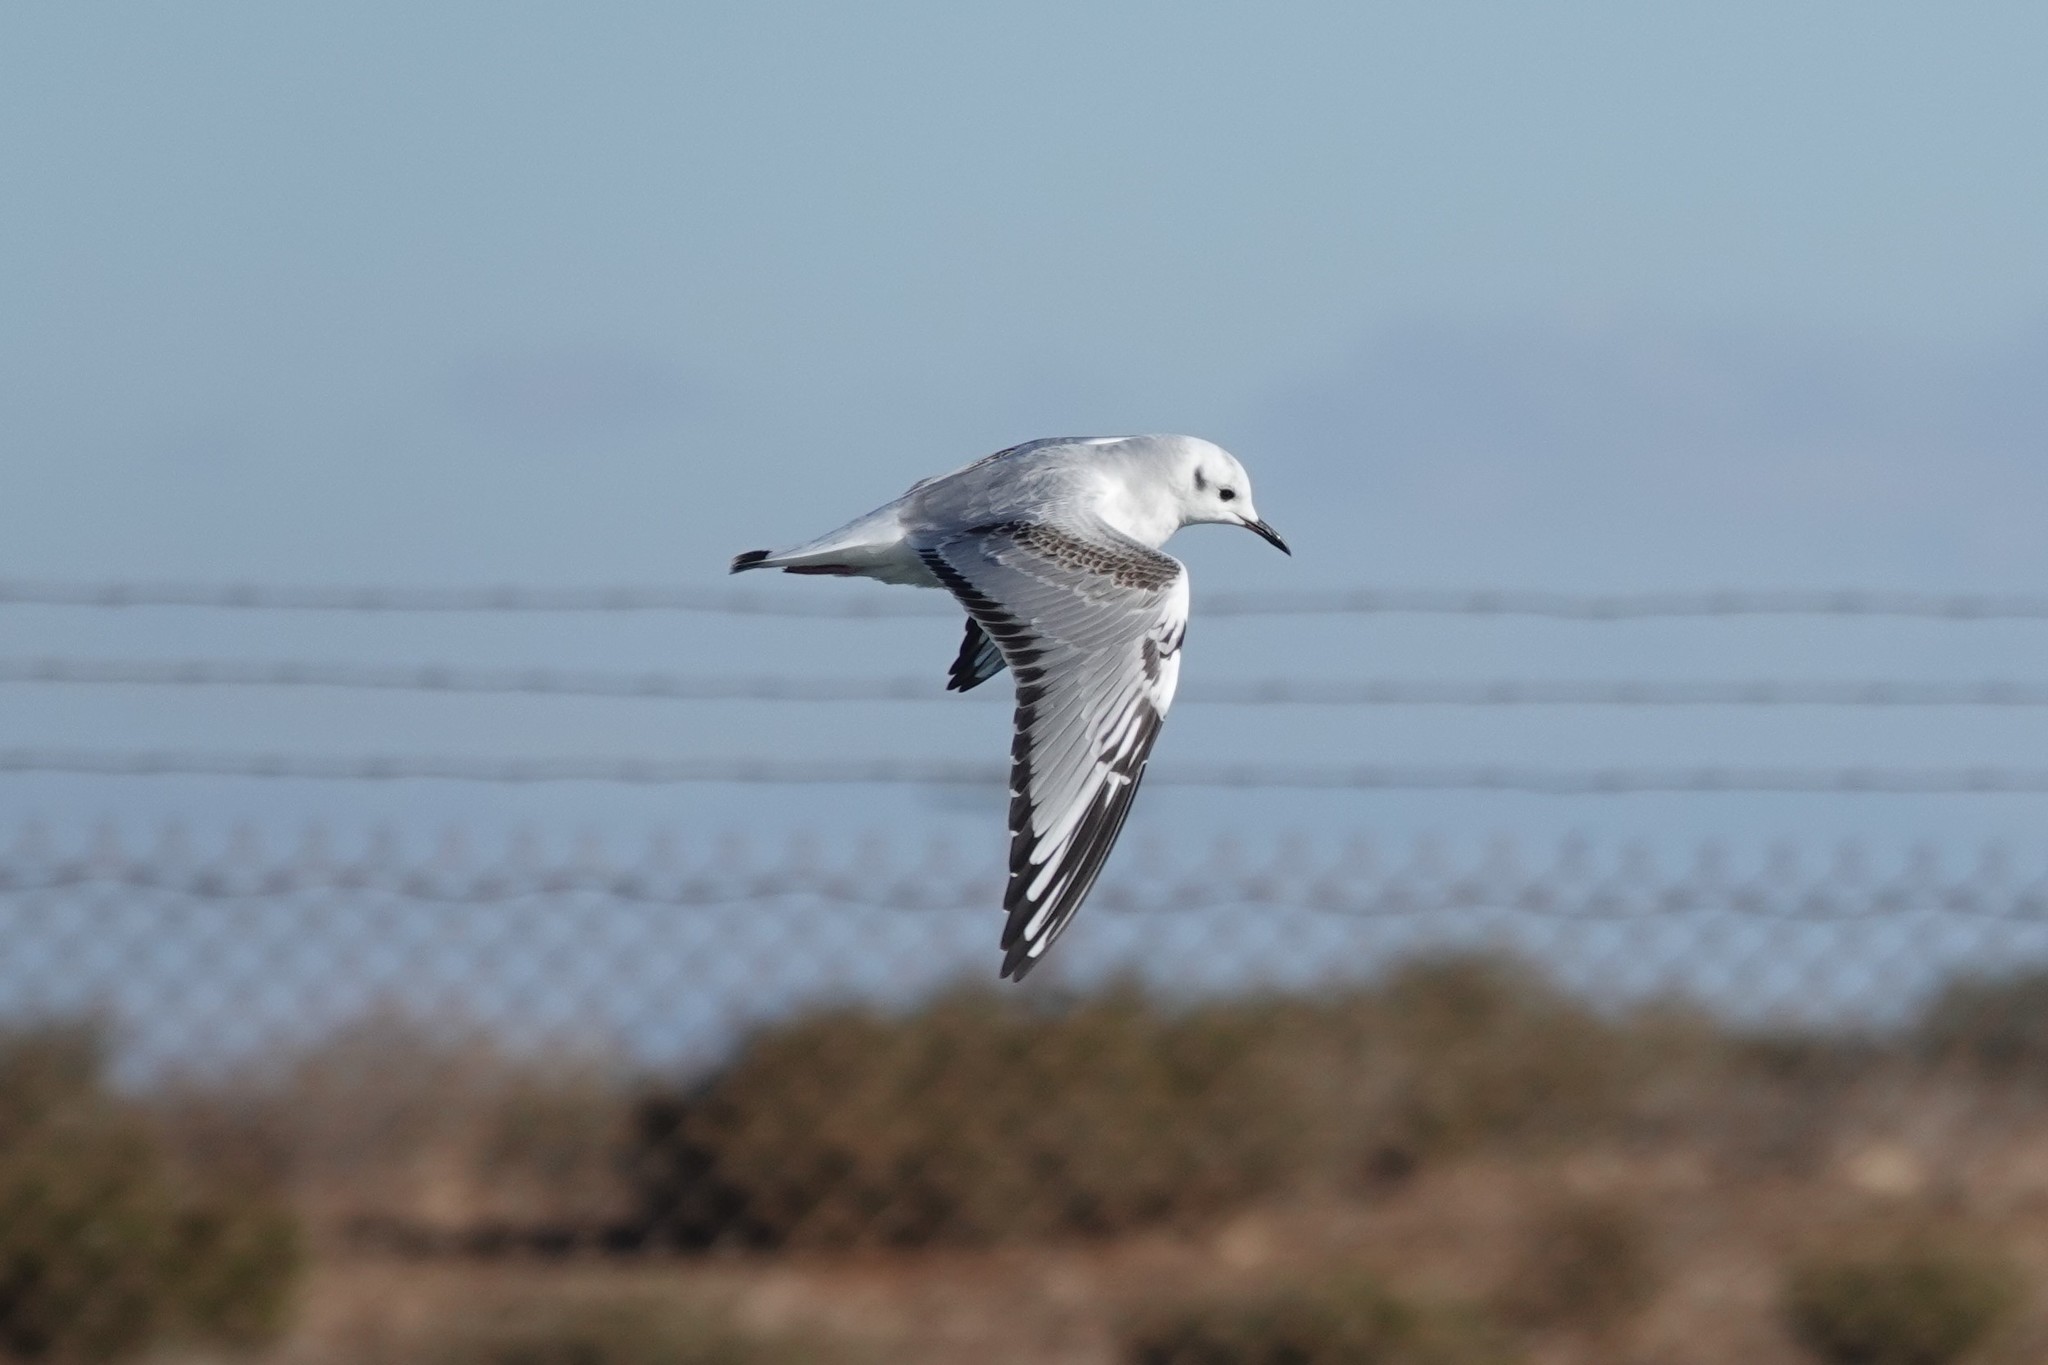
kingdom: Animalia
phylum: Chordata
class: Aves
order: Charadriiformes
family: Laridae
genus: Chroicocephalus
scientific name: Chroicocephalus philadelphia
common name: Bonaparte's gull
